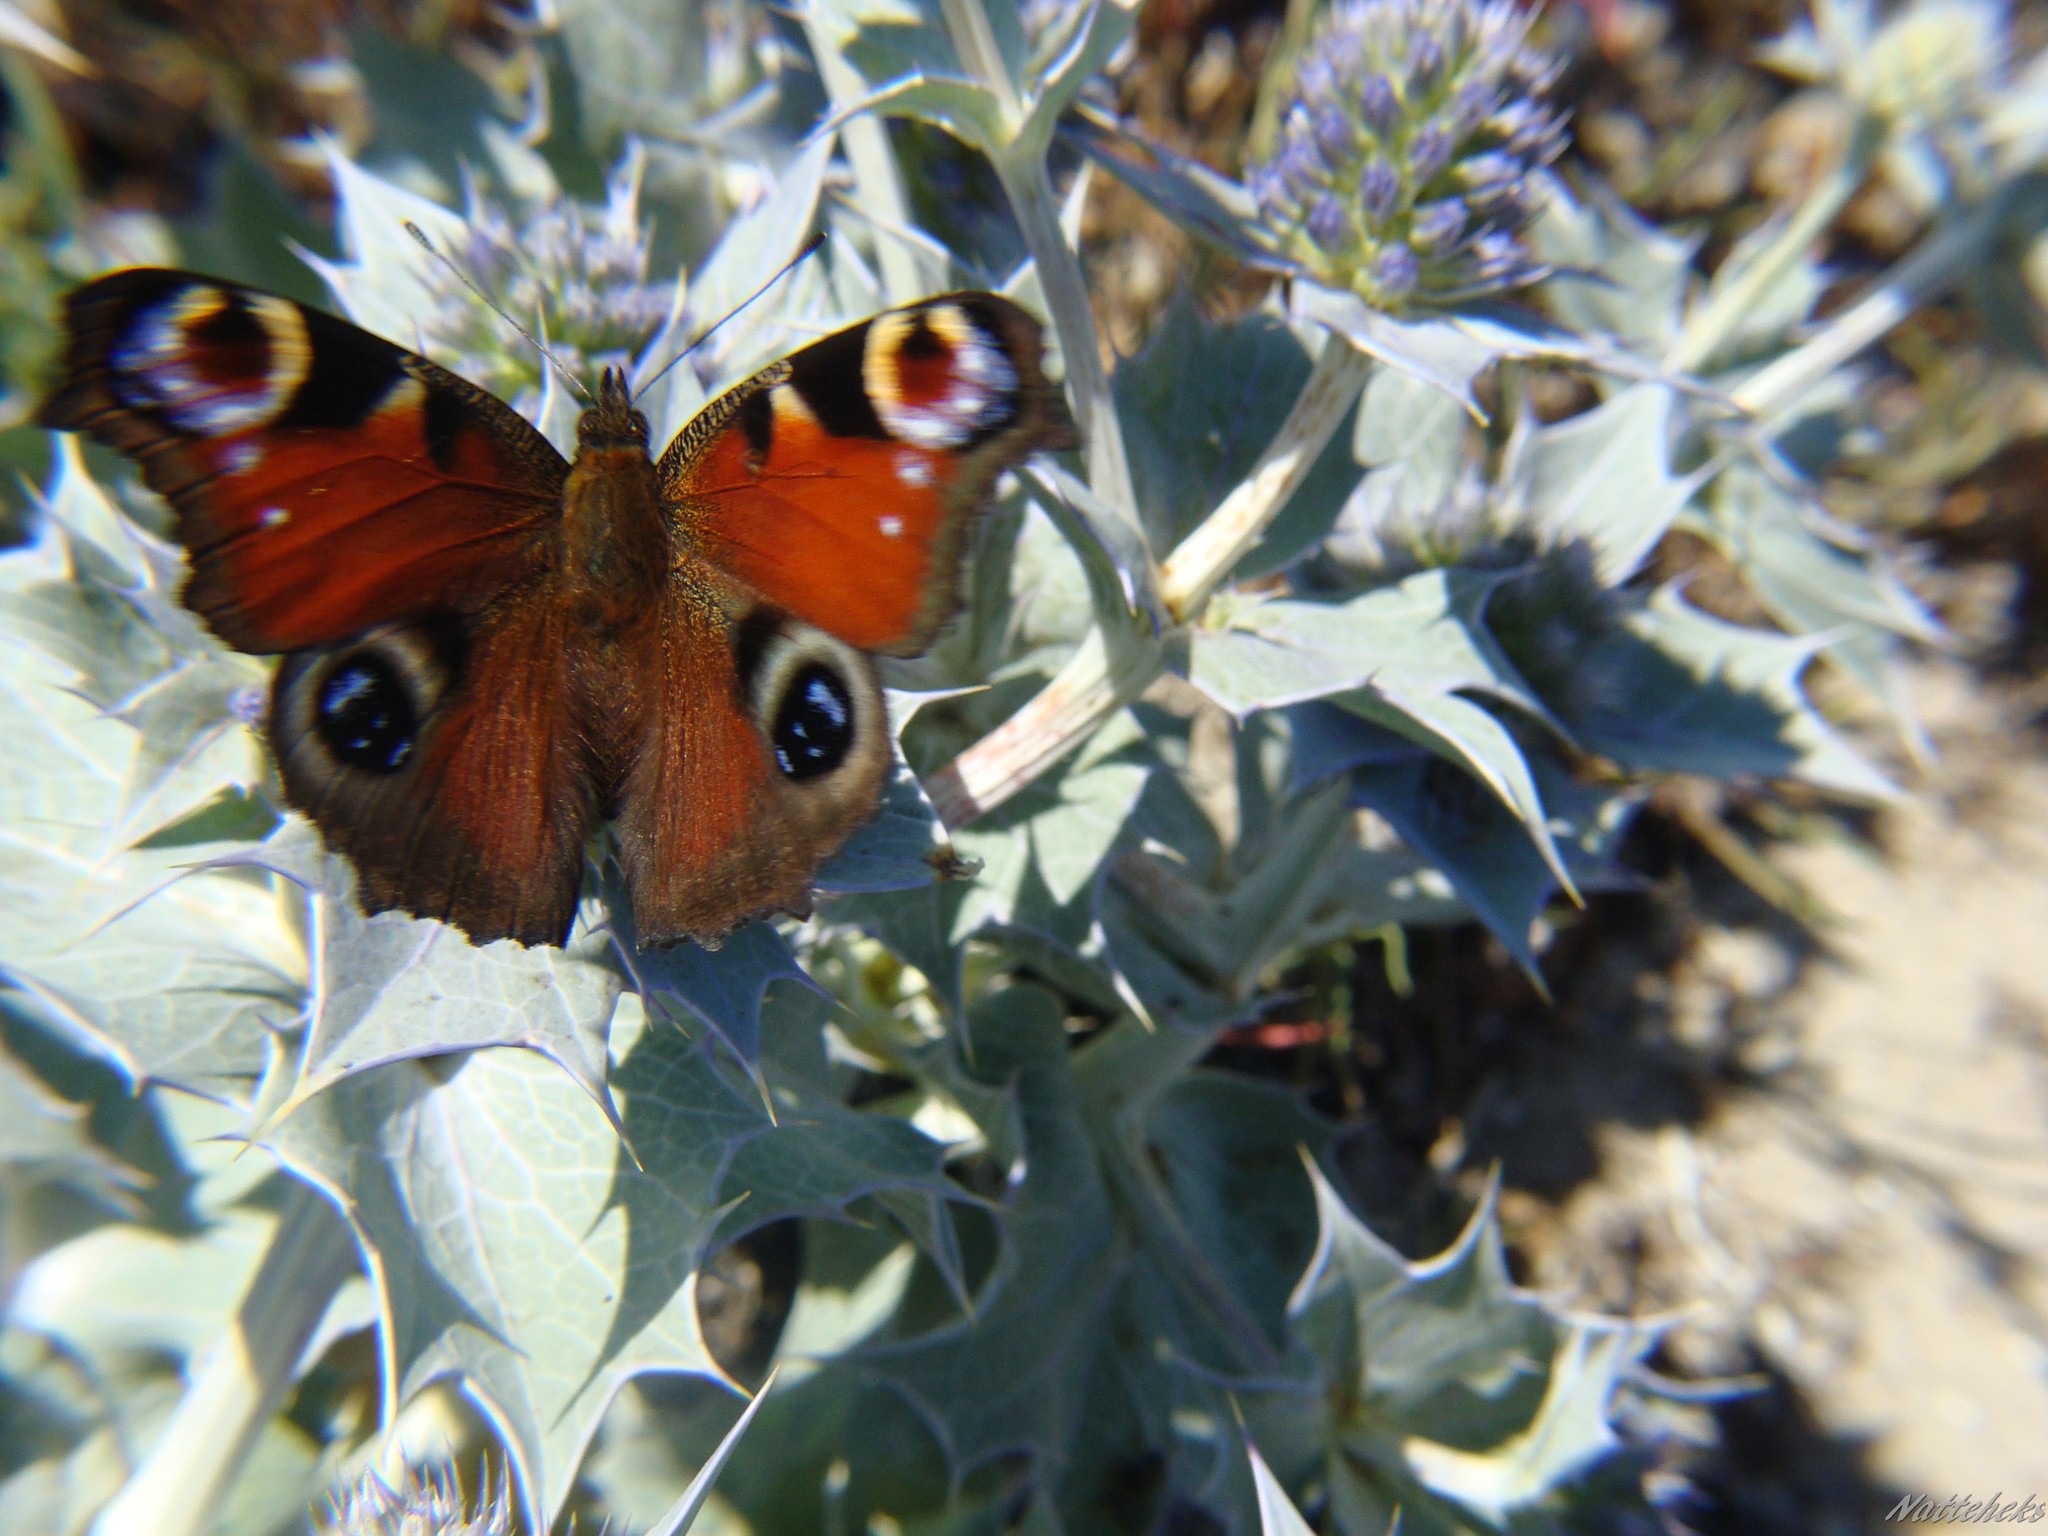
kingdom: Animalia
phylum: Arthropoda
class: Insecta
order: Lepidoptera
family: Nymphalidae
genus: Aglais
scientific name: Aglais io
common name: Peacock
